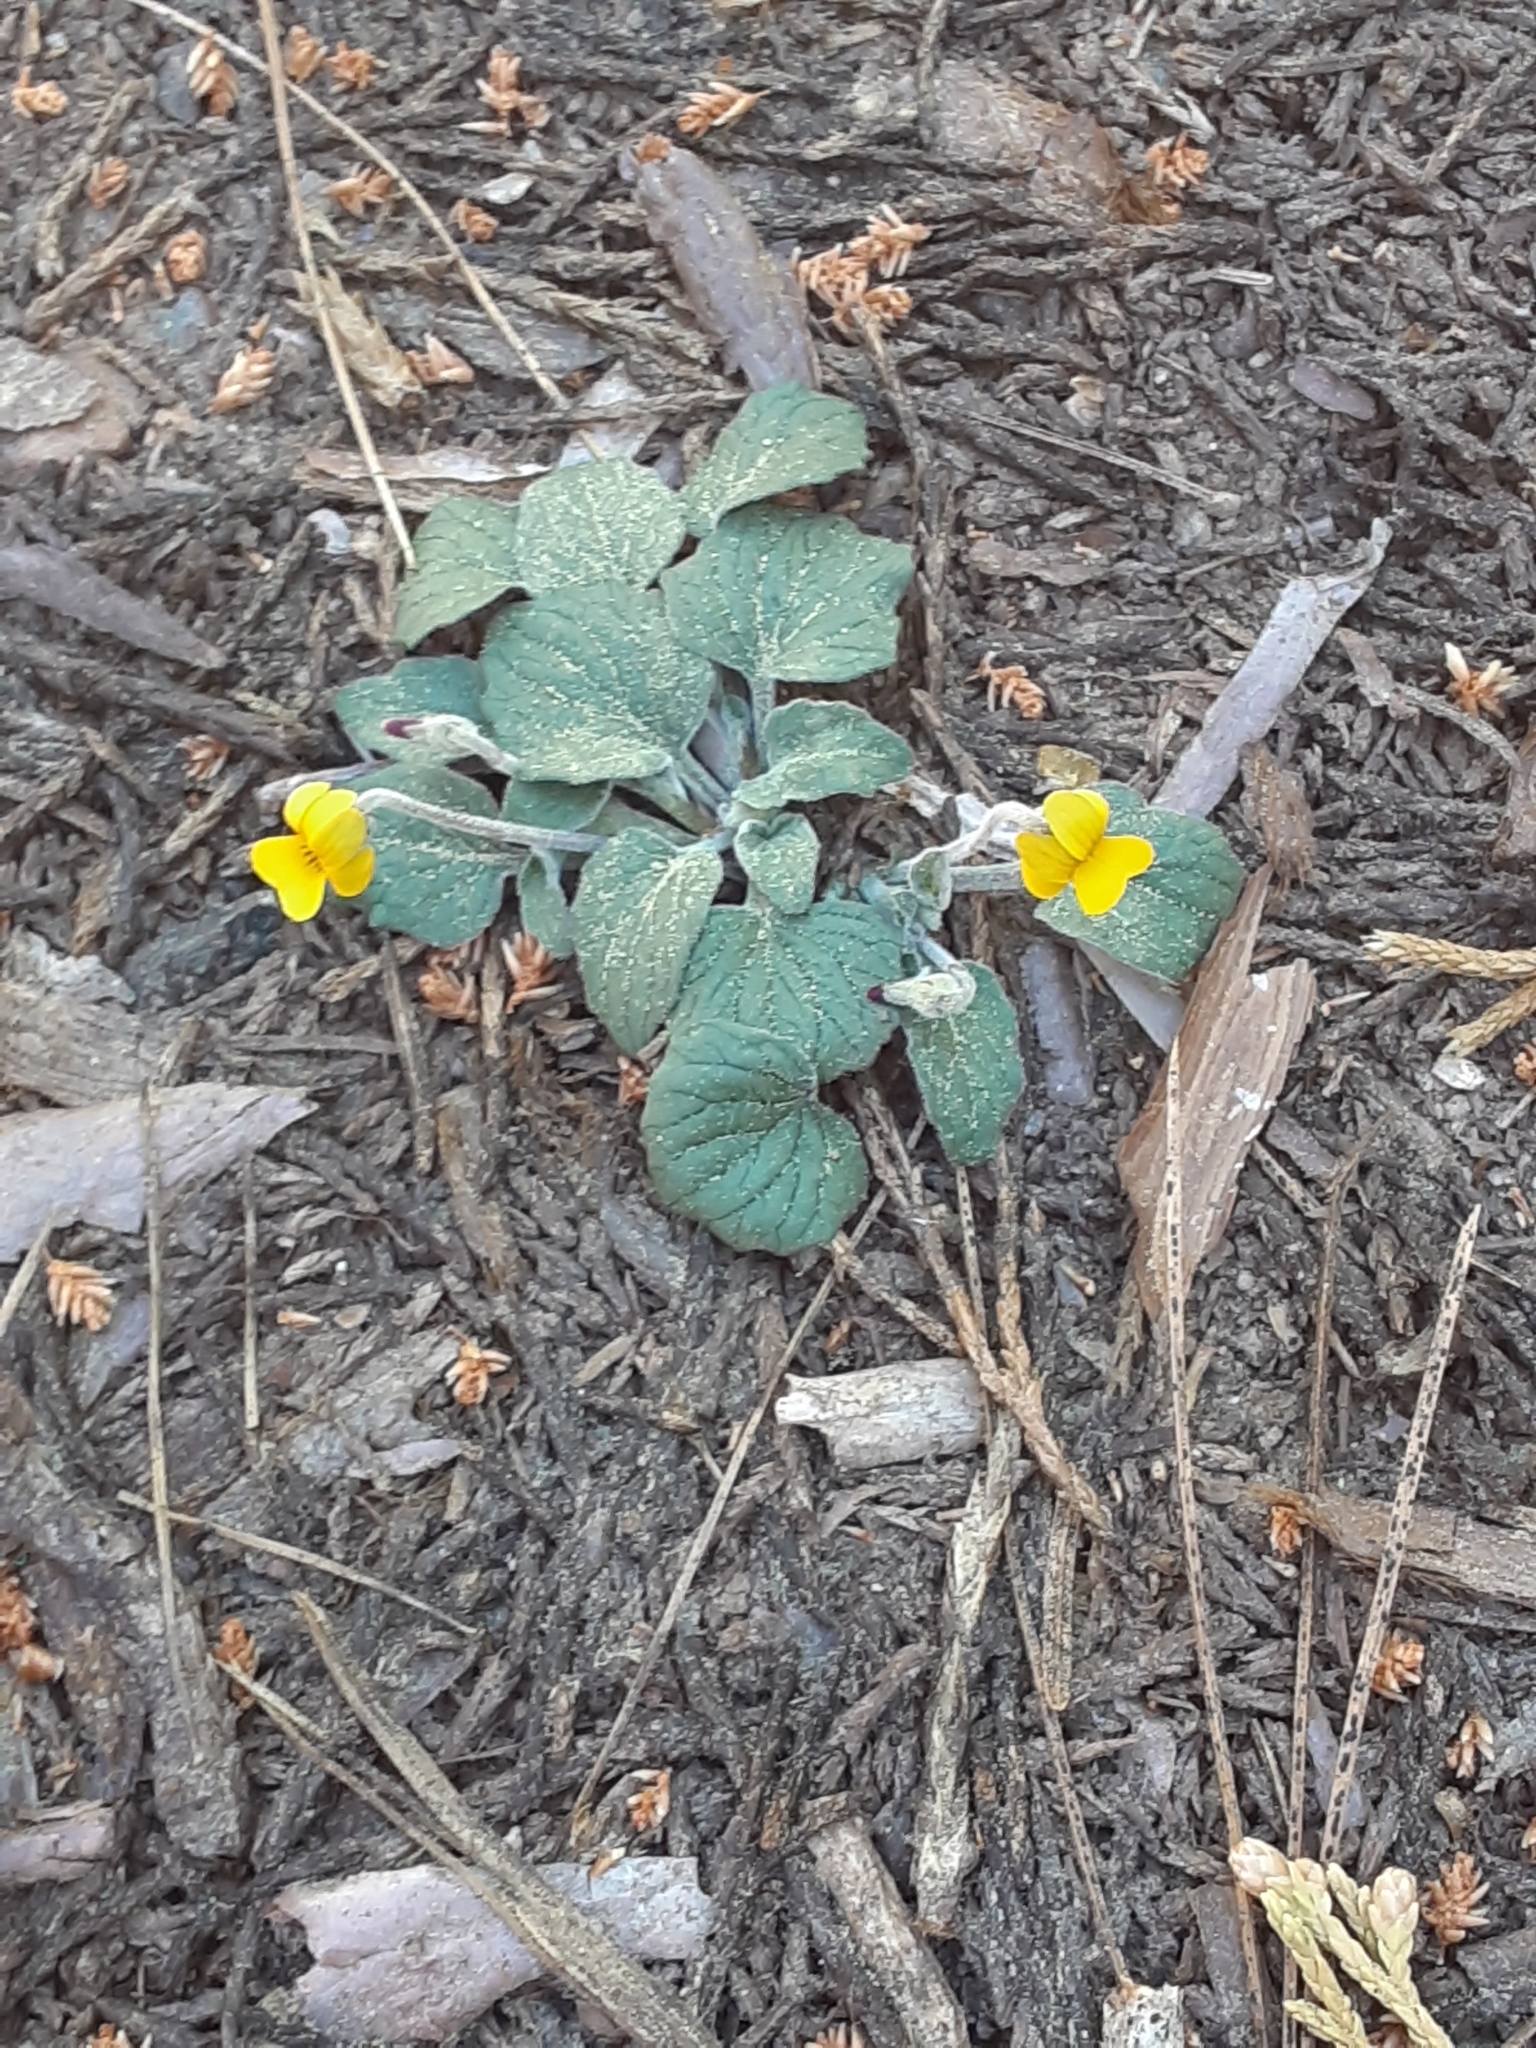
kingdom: Plantae
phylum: Tracheophyta
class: Magnoliopsida
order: Malpighiales
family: Violaceae
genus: Viola
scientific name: Viola purpurea
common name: Pine violet
